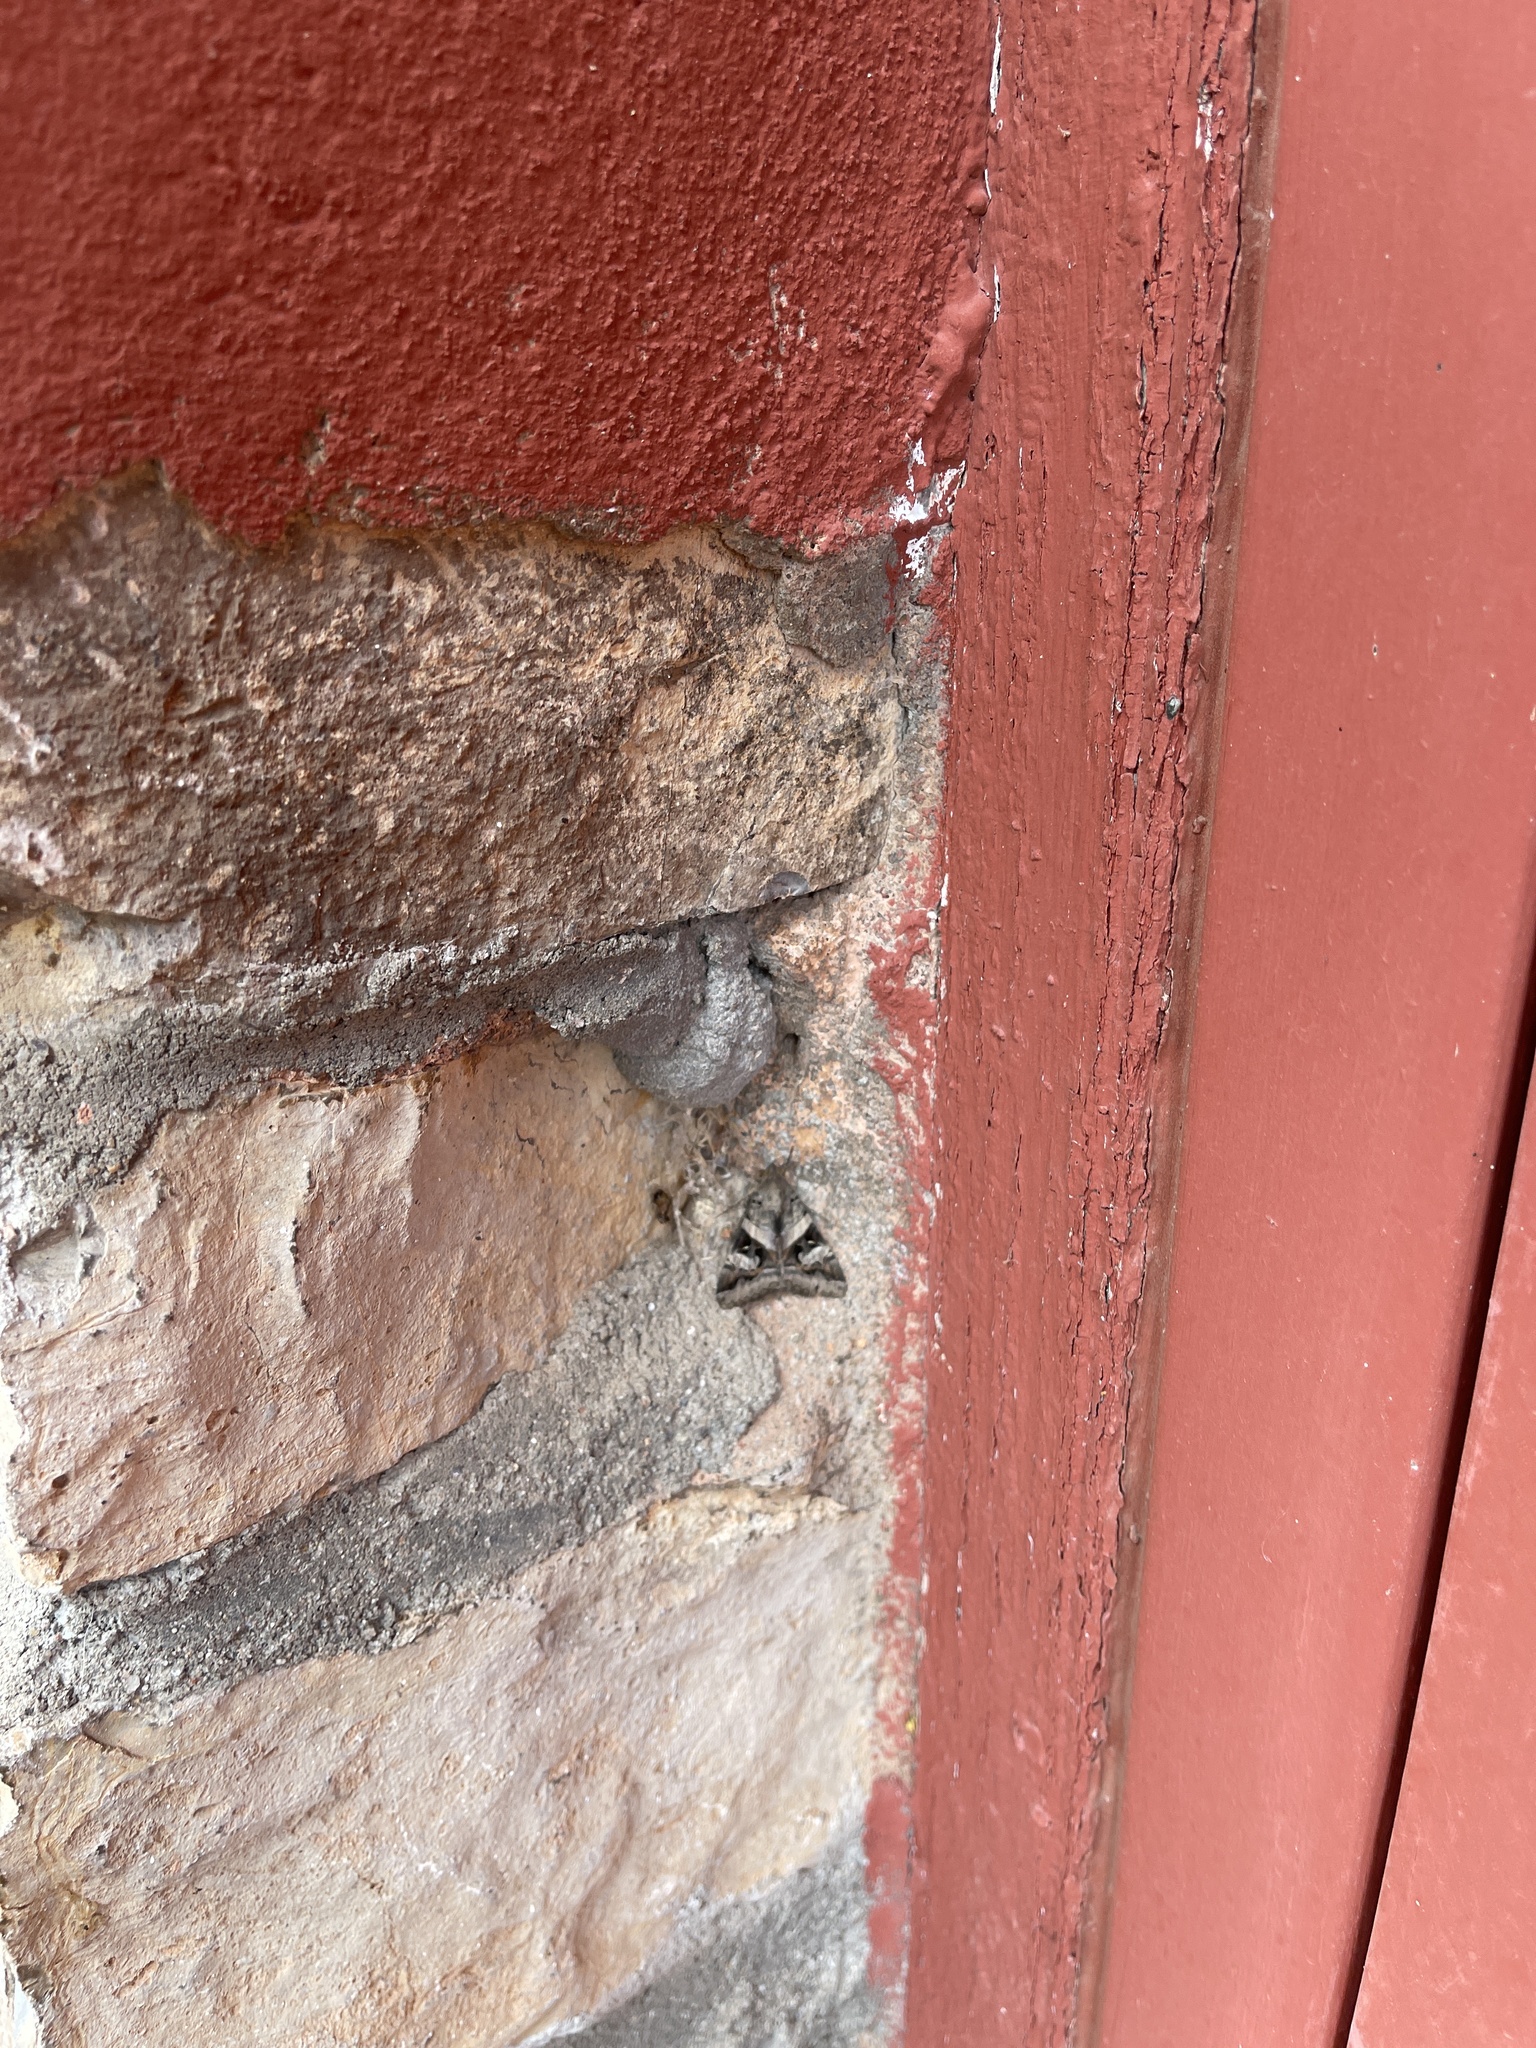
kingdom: Animalia
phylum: Arthropoda
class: Insecta
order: Lepidoptera
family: Erebidae
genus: Melipotis
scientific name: Melipotis indomita
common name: Moth
